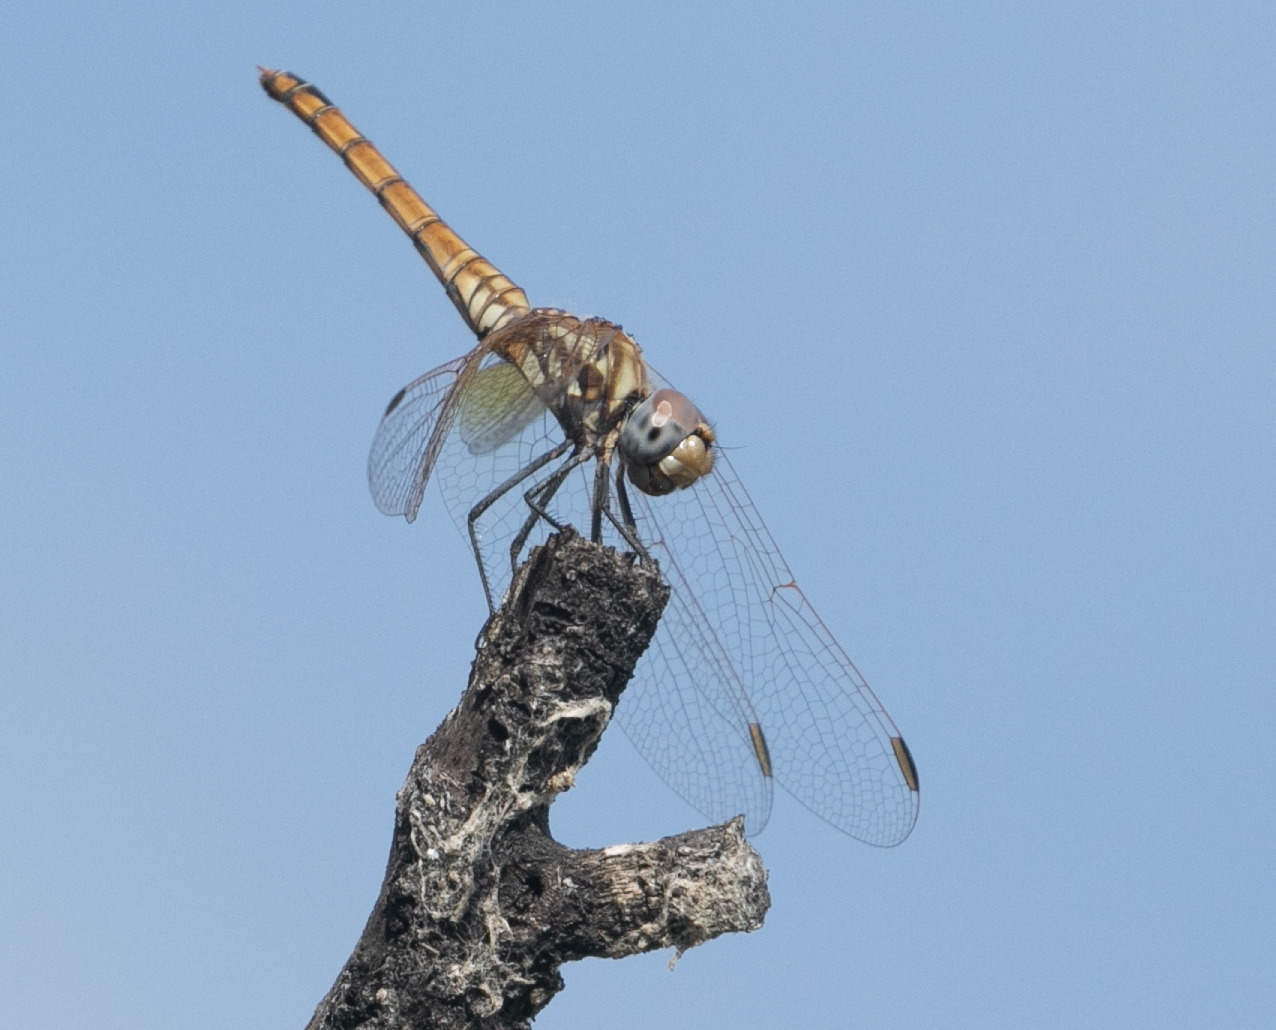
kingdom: Animalia
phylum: Arthropoda
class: Insecta
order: Odonata
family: Libellulidae
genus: Trithemis
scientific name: Trithemis annulata
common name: Violet dropwing
